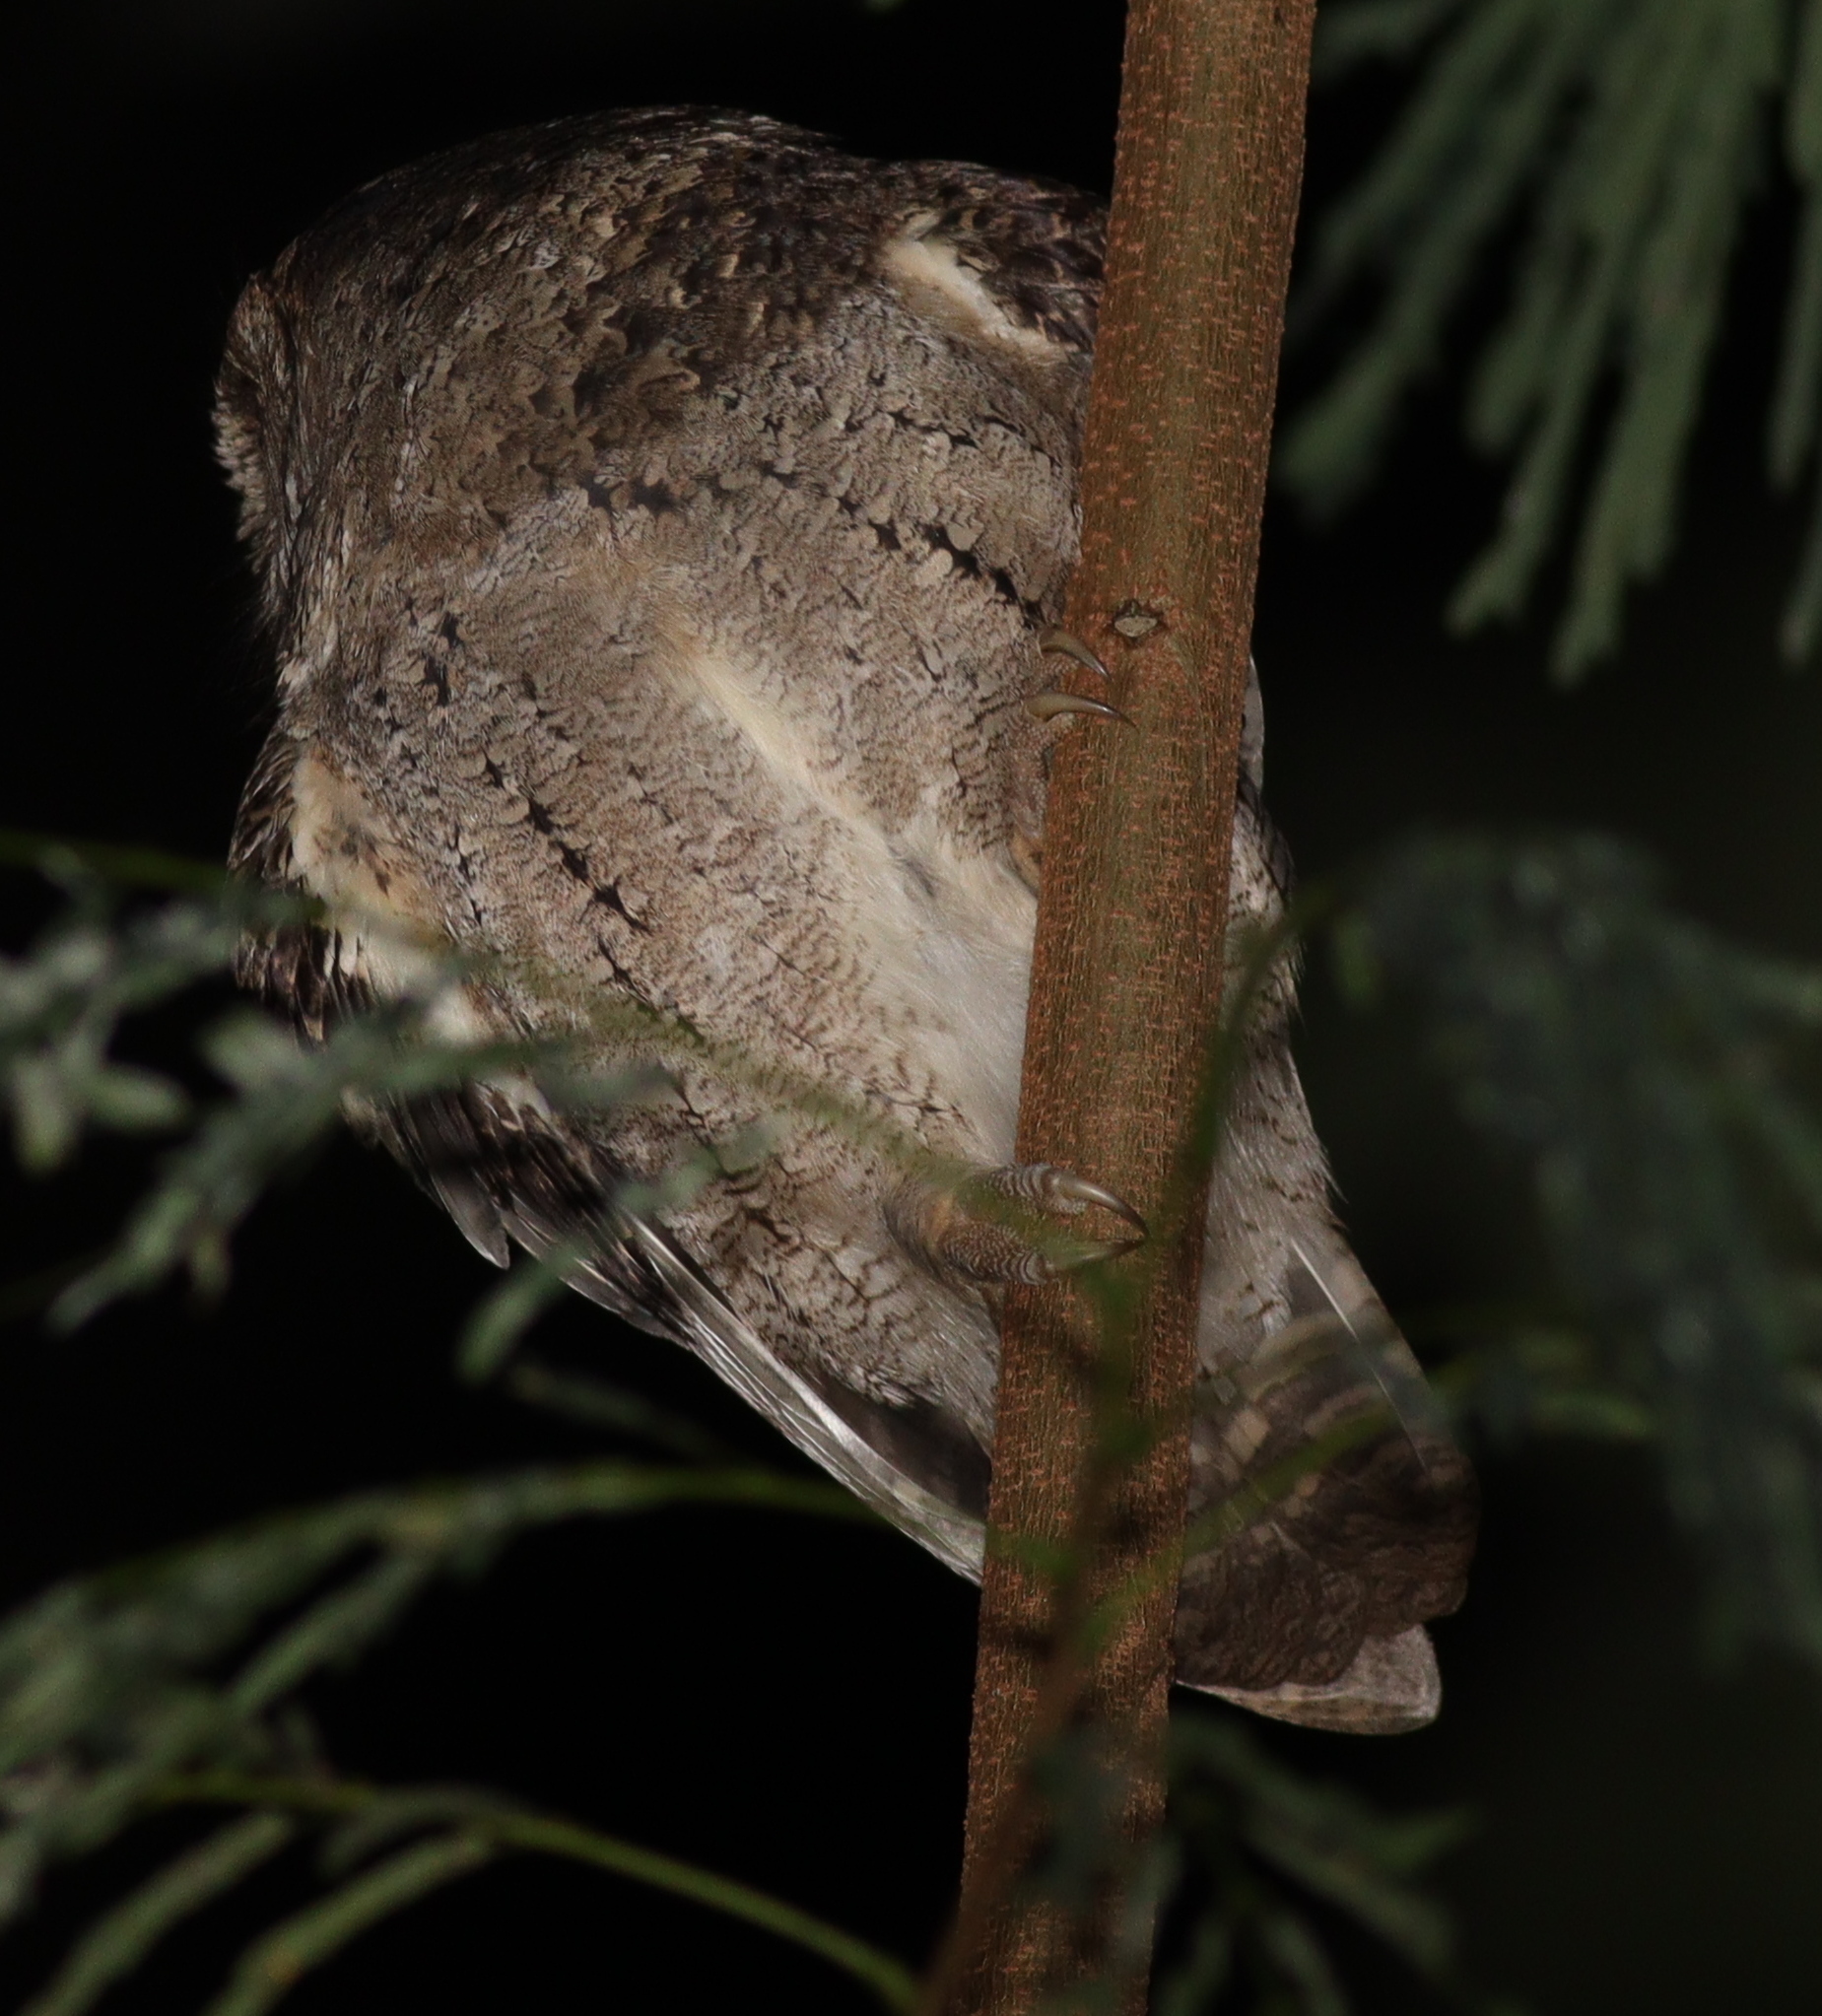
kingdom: Animalia
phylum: Chordata
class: Aves
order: Strigiformes
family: Strigidae
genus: Otus
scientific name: Otus lettia
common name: Collared scops owl
